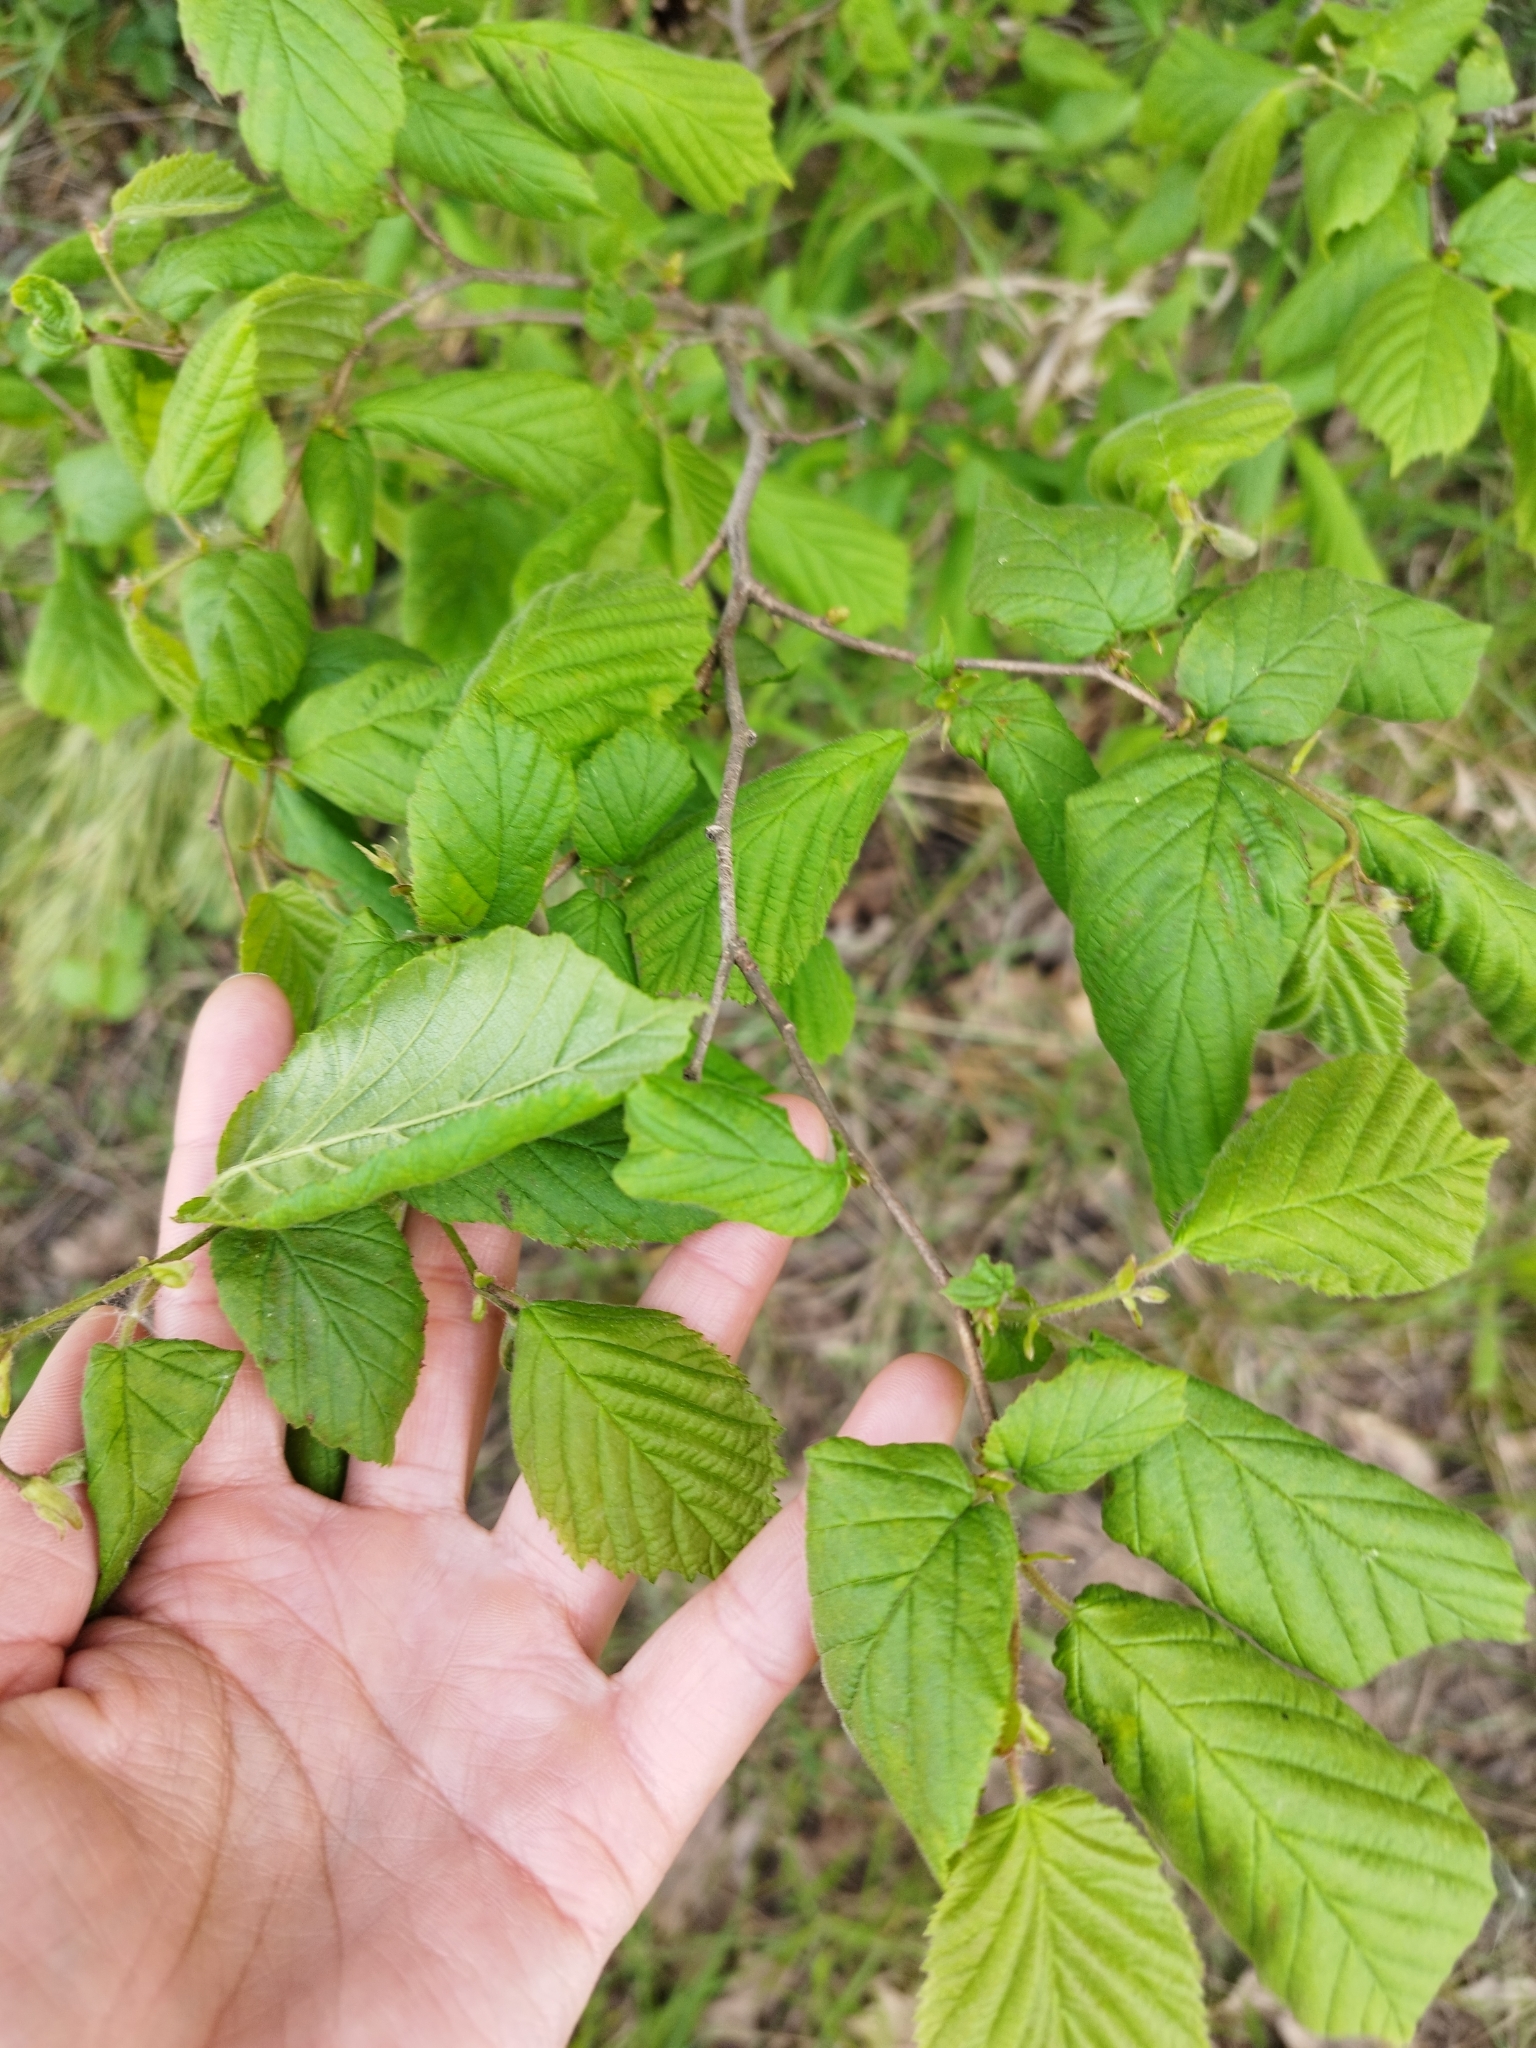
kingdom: Plantae
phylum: Tracheophyta
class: Magnoliopsida
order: Fagales
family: Betulaceae
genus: Corylus
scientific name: Corylus avellana
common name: European hazel
